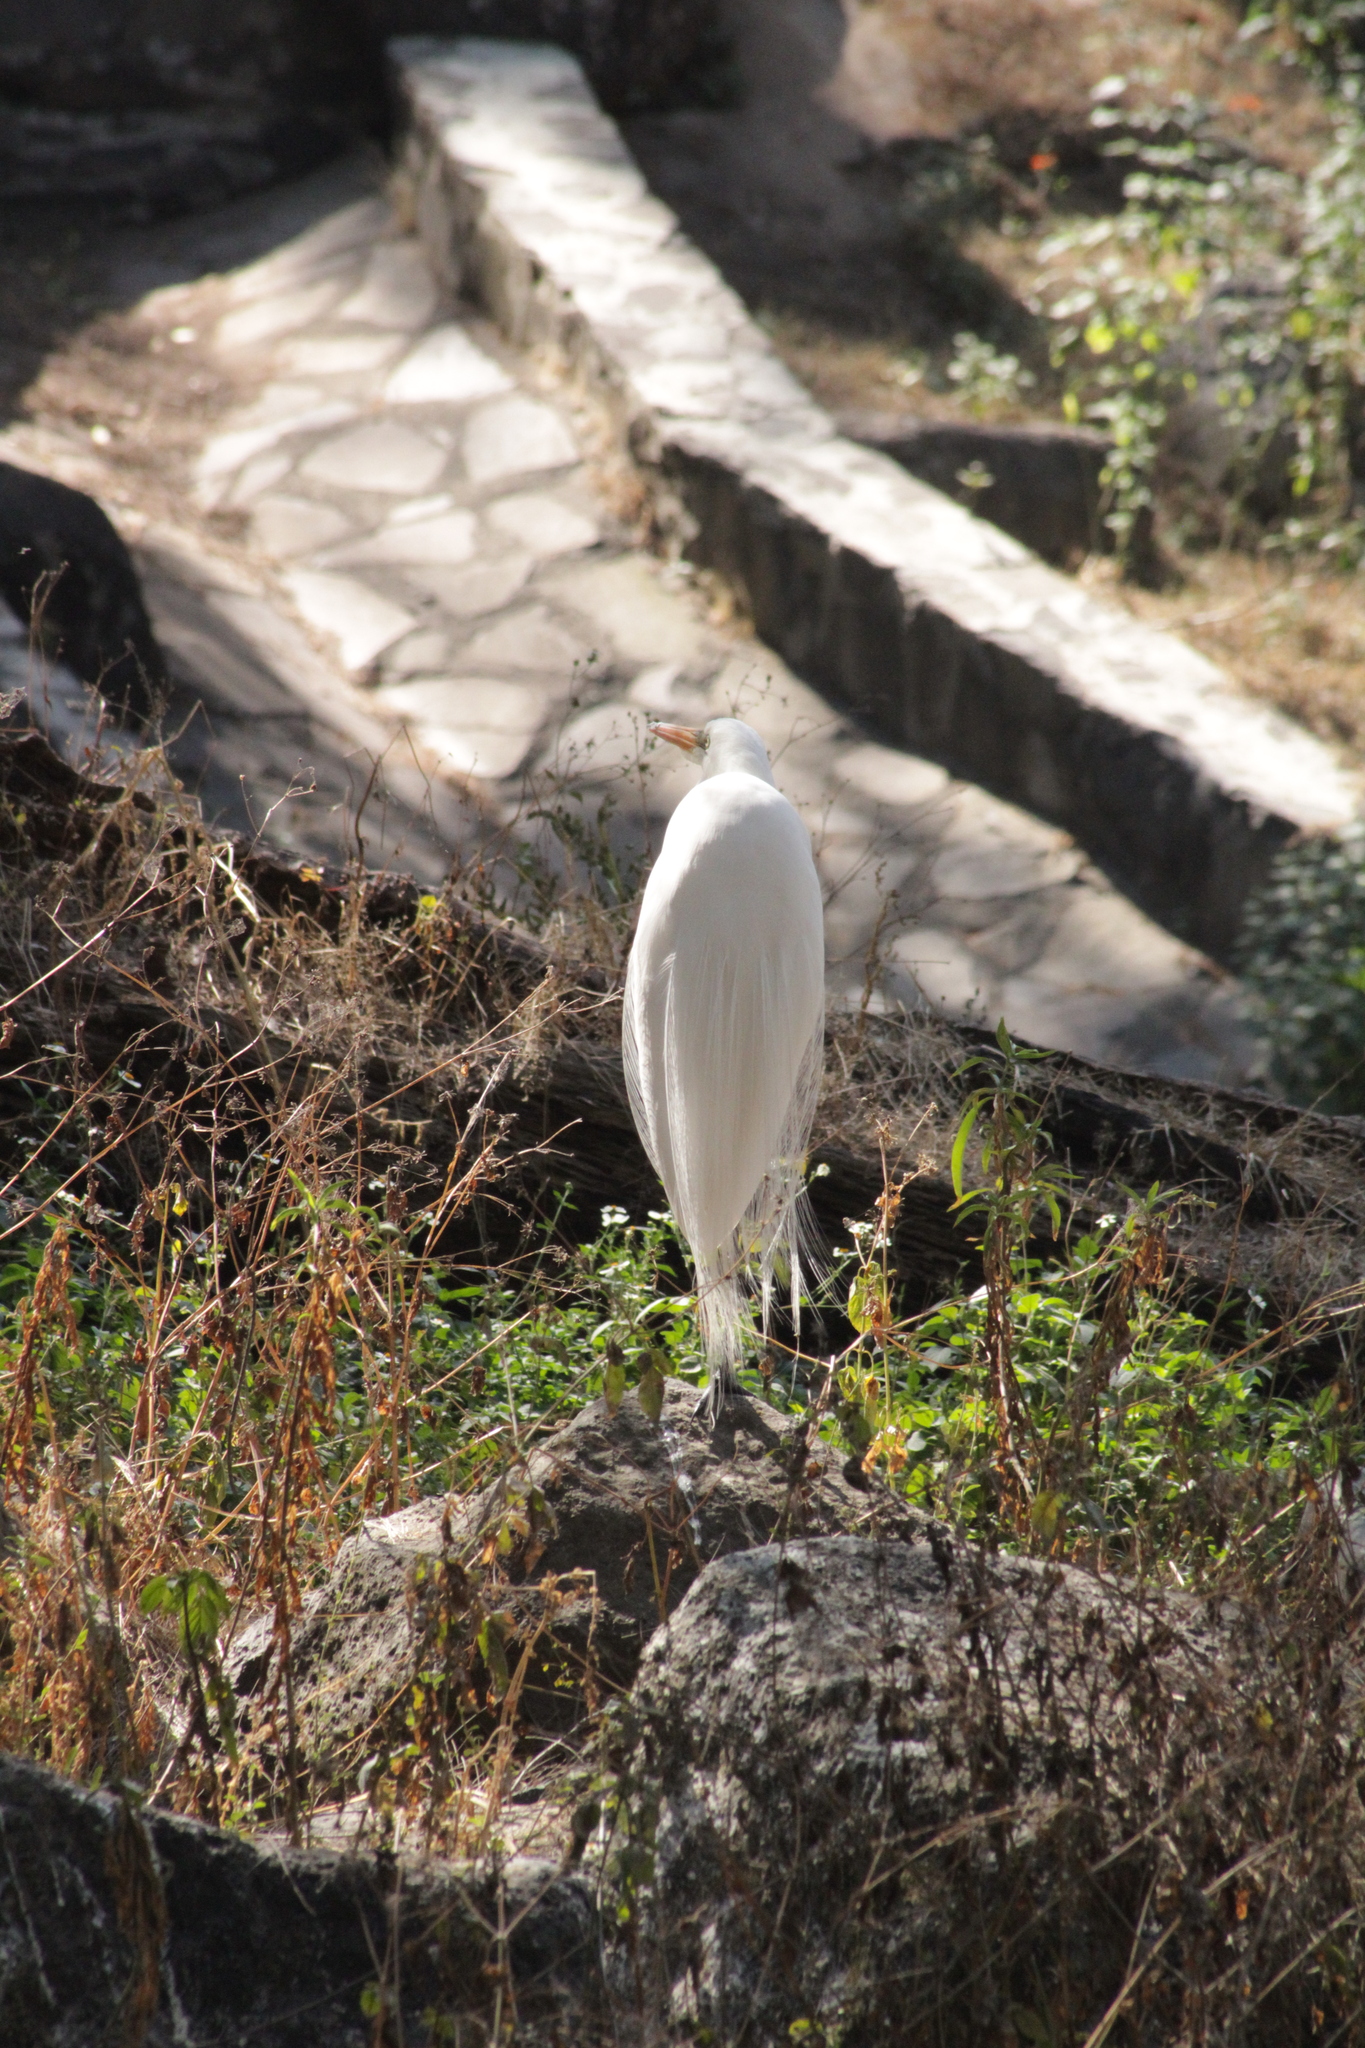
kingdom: Animalia
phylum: Chordata
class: Aves
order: Pelecaniformes
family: Ardeidae
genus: Ardea
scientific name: Ardea alba
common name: Great egret
